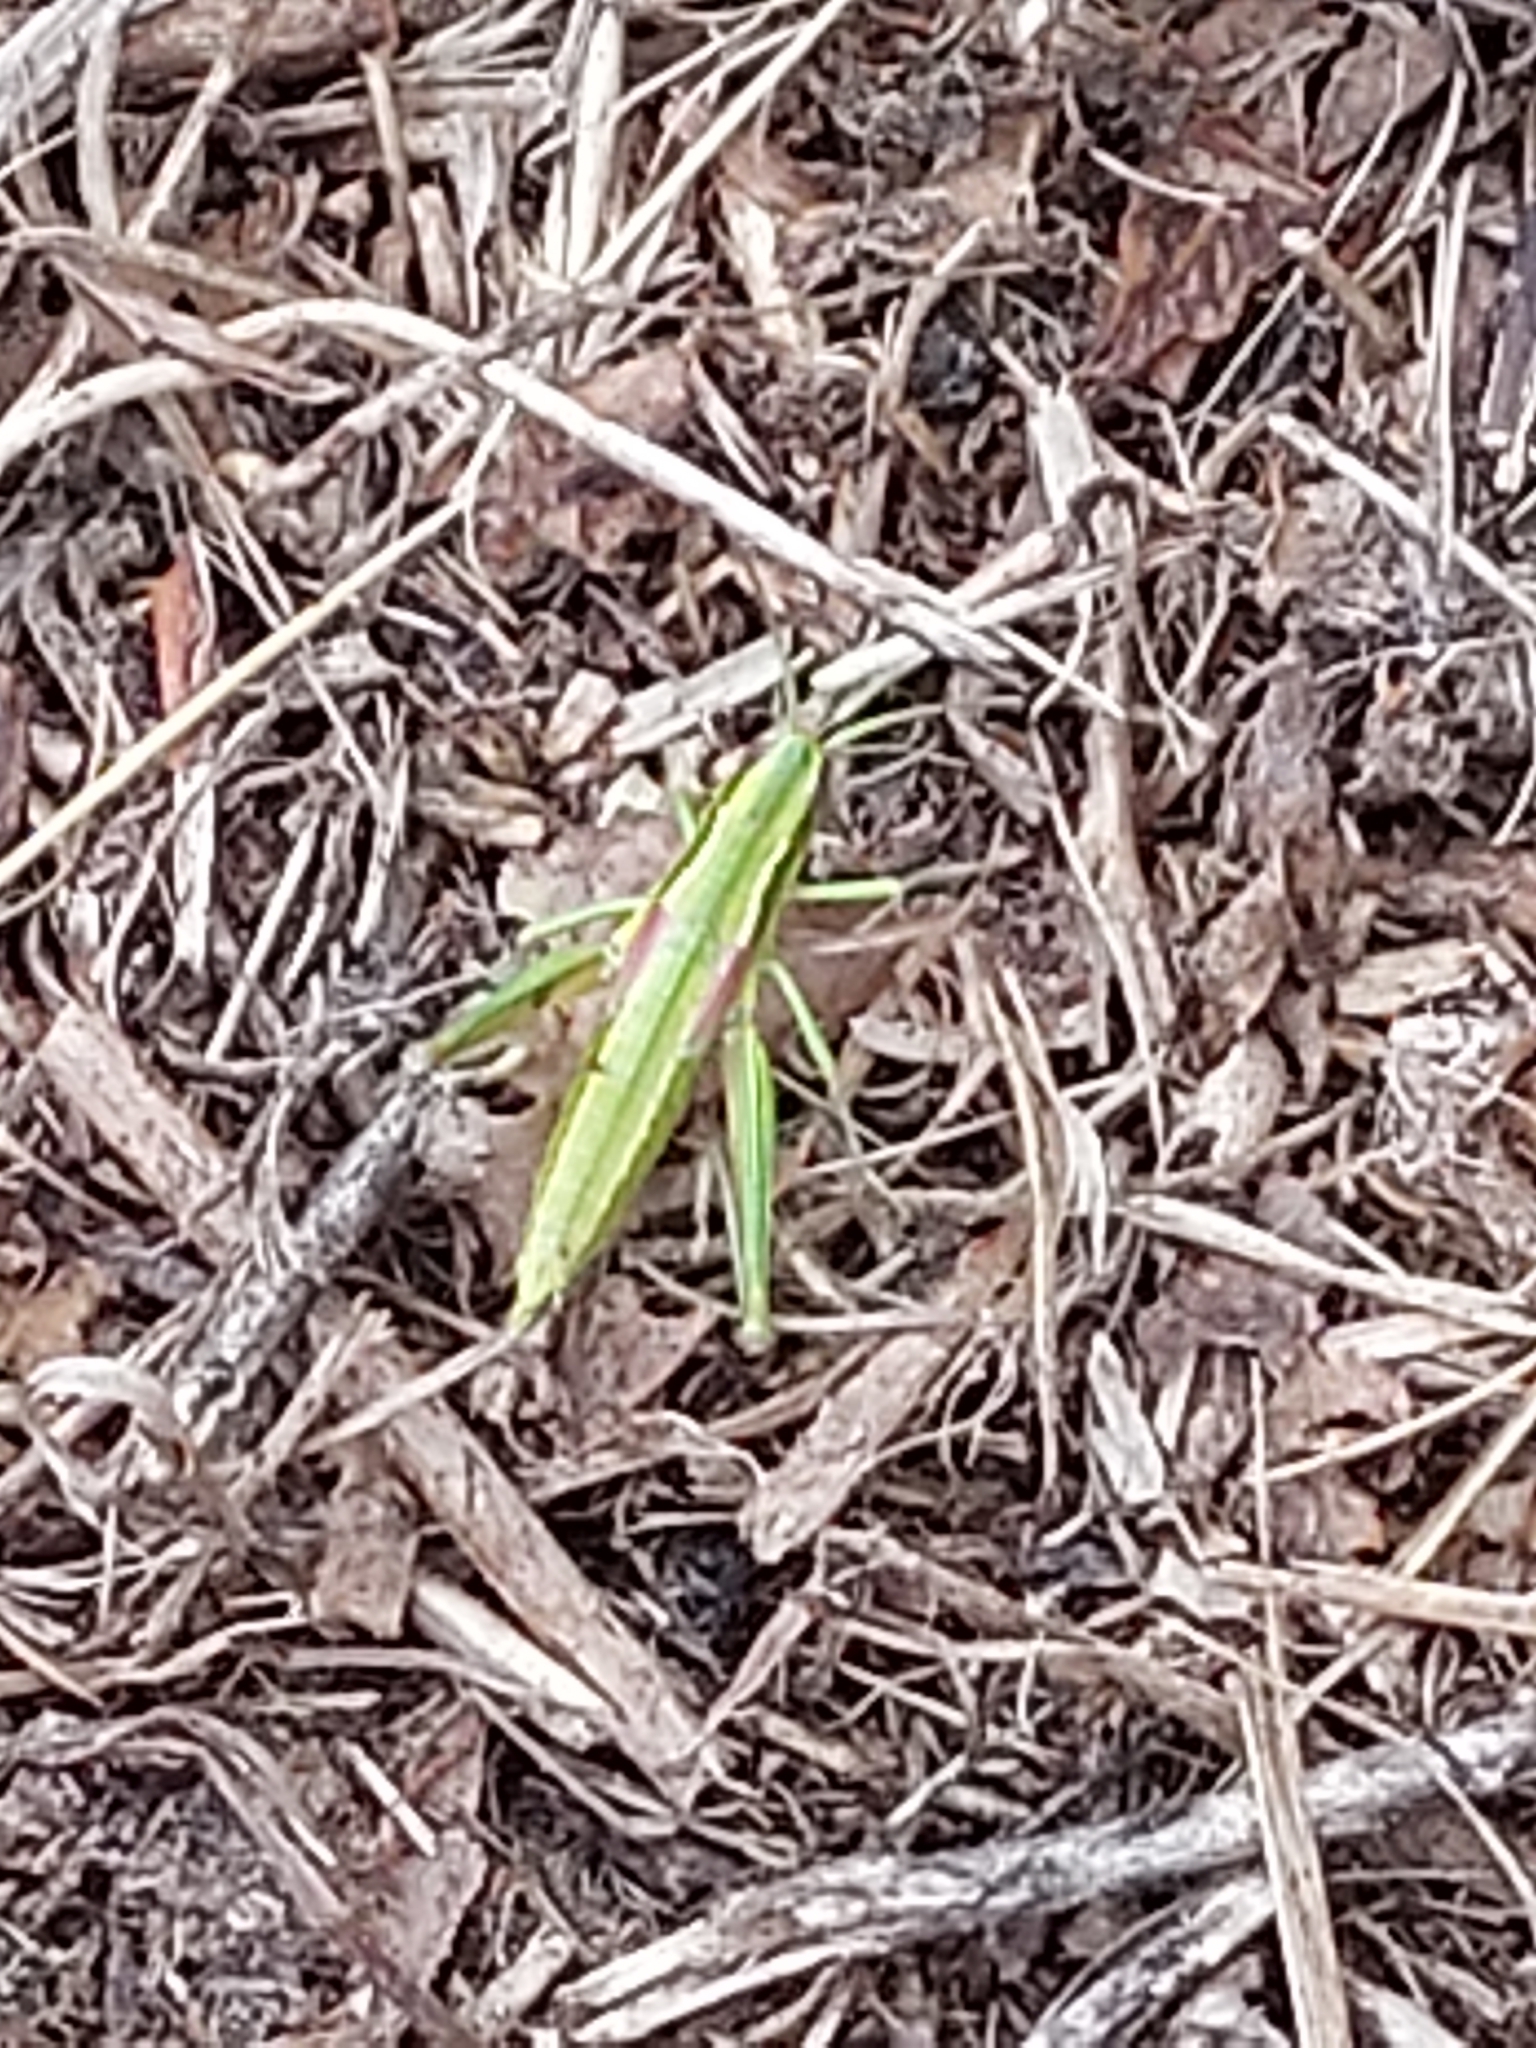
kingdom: Animalia
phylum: Arthropoda
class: Insecta
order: Orthoptera
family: Acrididae
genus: Euthystira
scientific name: Euthystira brachyptera
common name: Small gold grasshopper
